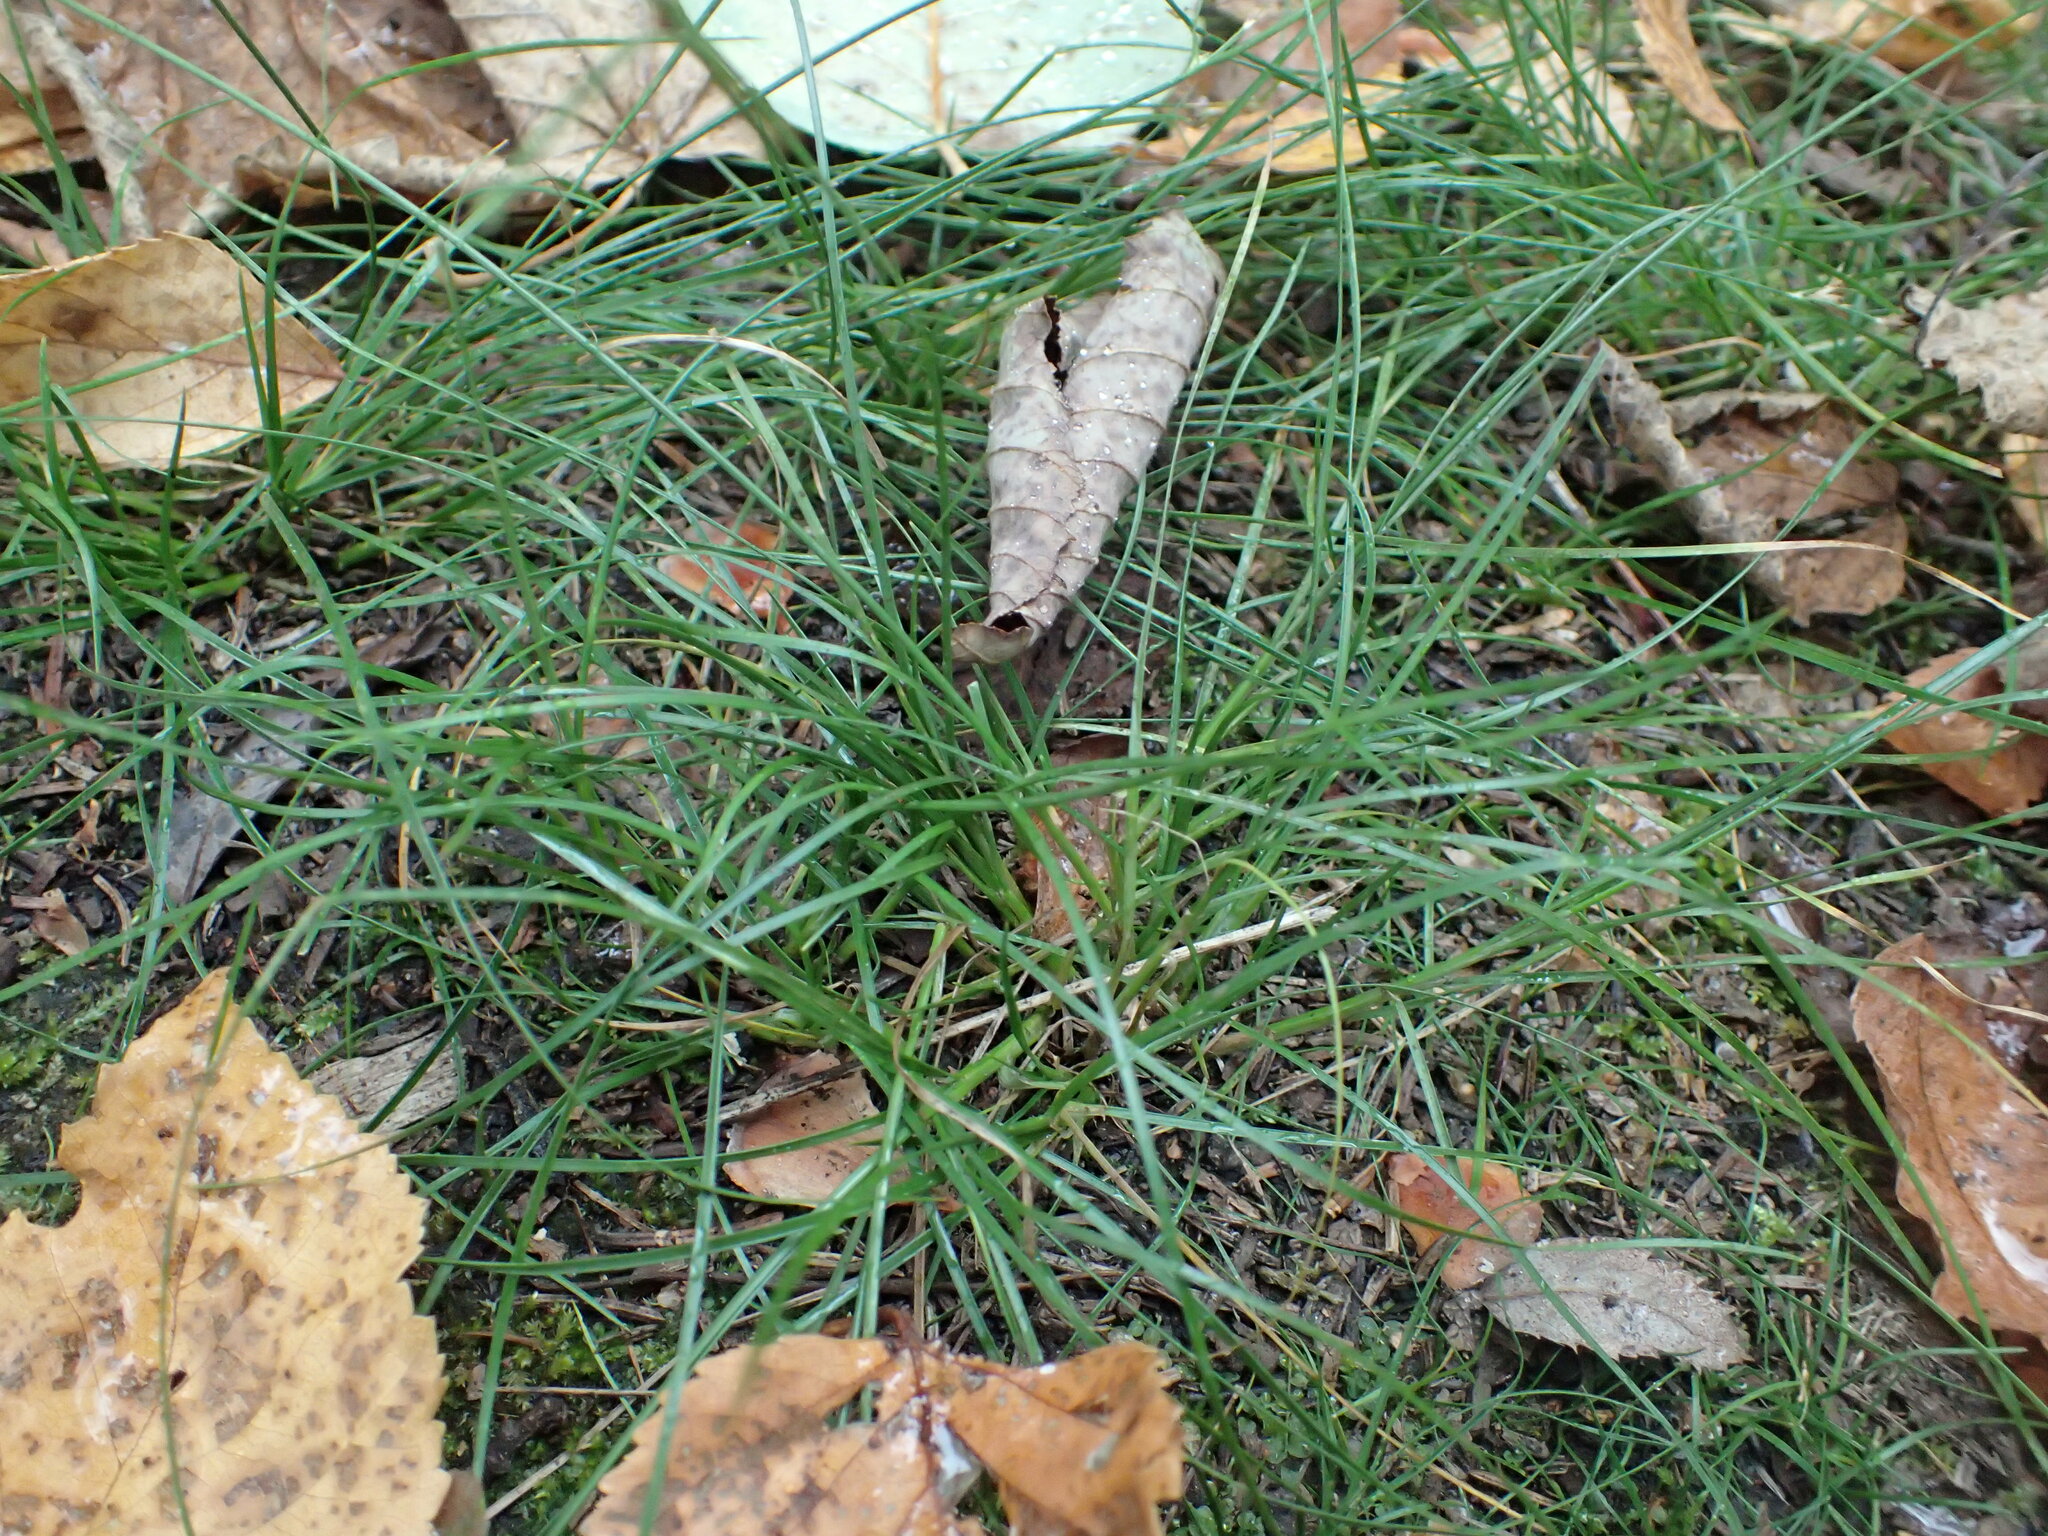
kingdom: Plantae
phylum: Tracheophyta
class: Liliopsida
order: Poales
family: Juncaceae
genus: Juncus
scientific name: Juncus tenuis
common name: Slender rush
